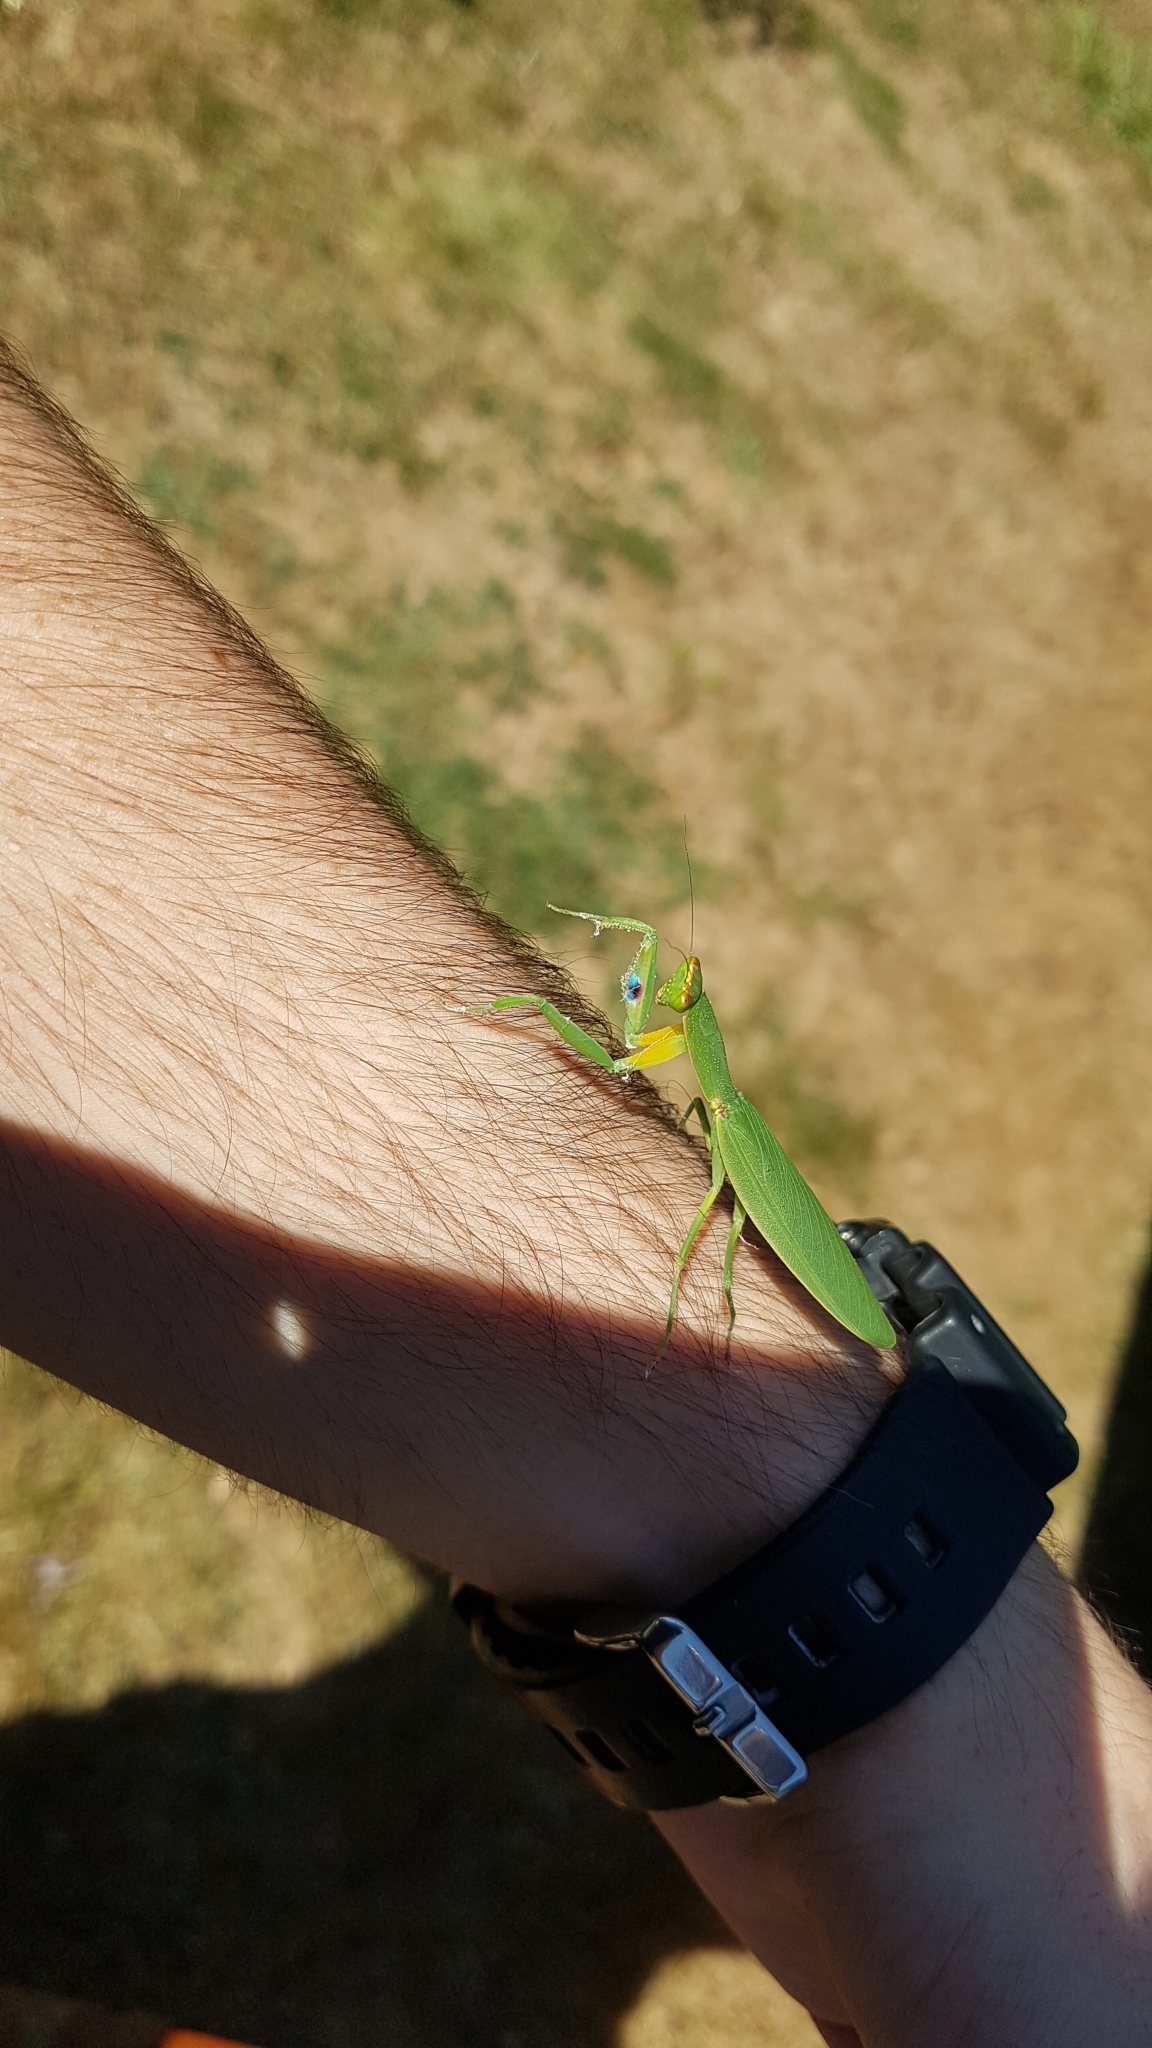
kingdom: Animalia
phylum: Arthropoda
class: Insecta
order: Mantodea
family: Mantidae
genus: Orthodera
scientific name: Orthodera novaezealandiae
